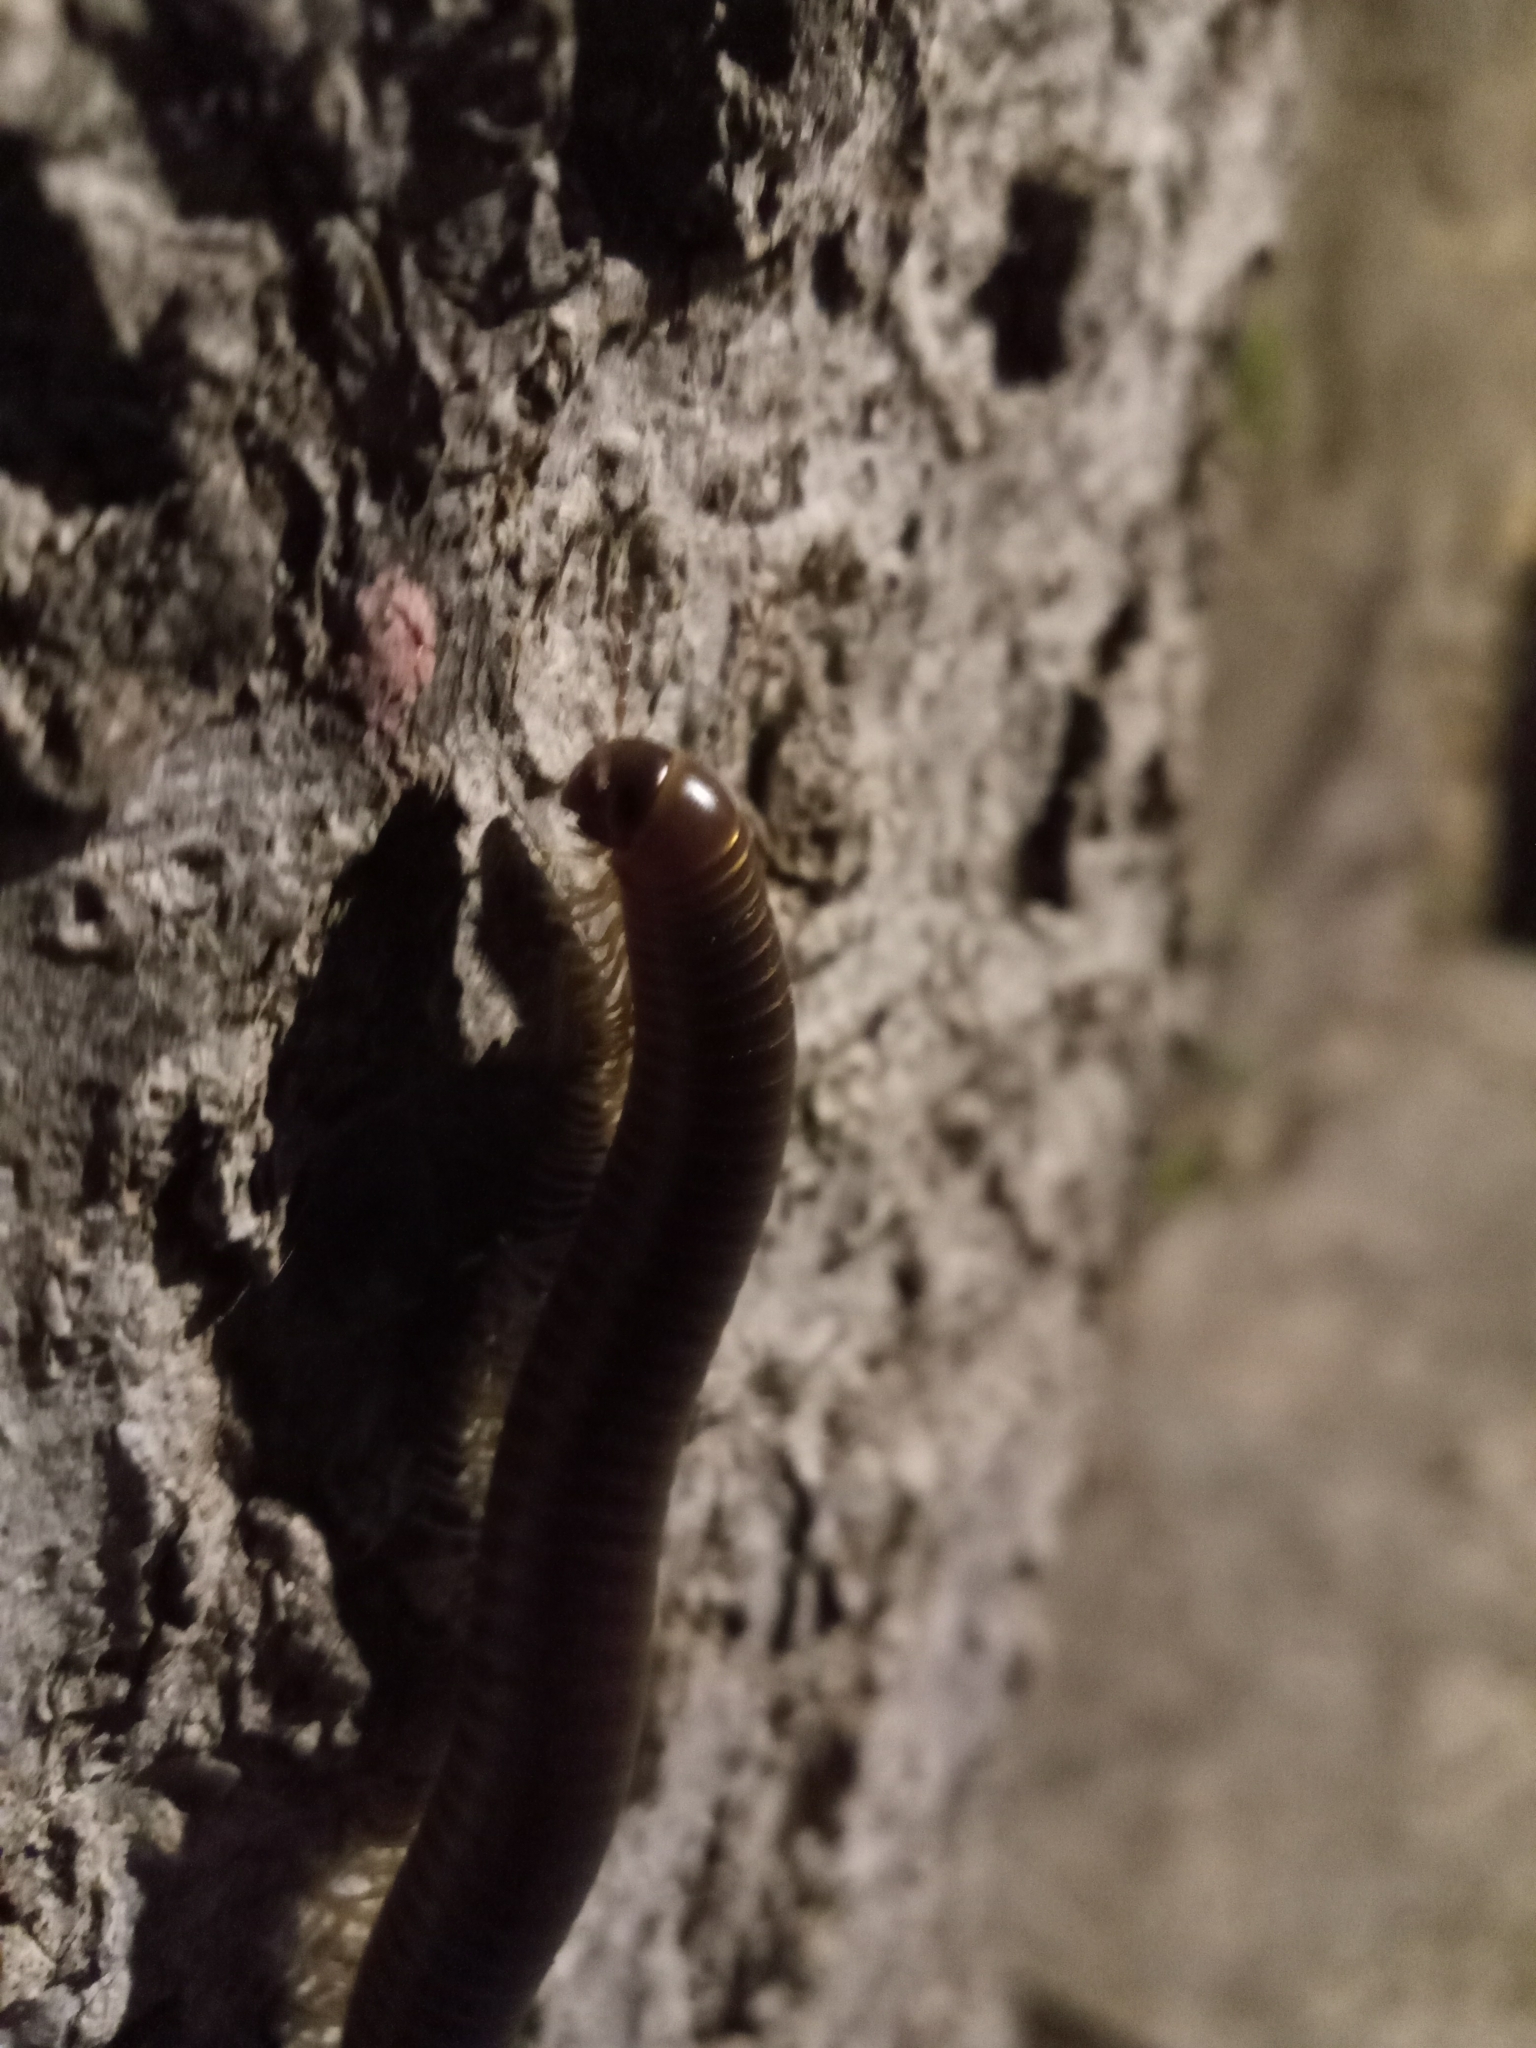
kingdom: Animalia
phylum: Arthropoda
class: Diplopoda
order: Julida
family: Julidae
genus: Pachyiulus
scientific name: Pachyiulus flavipes
